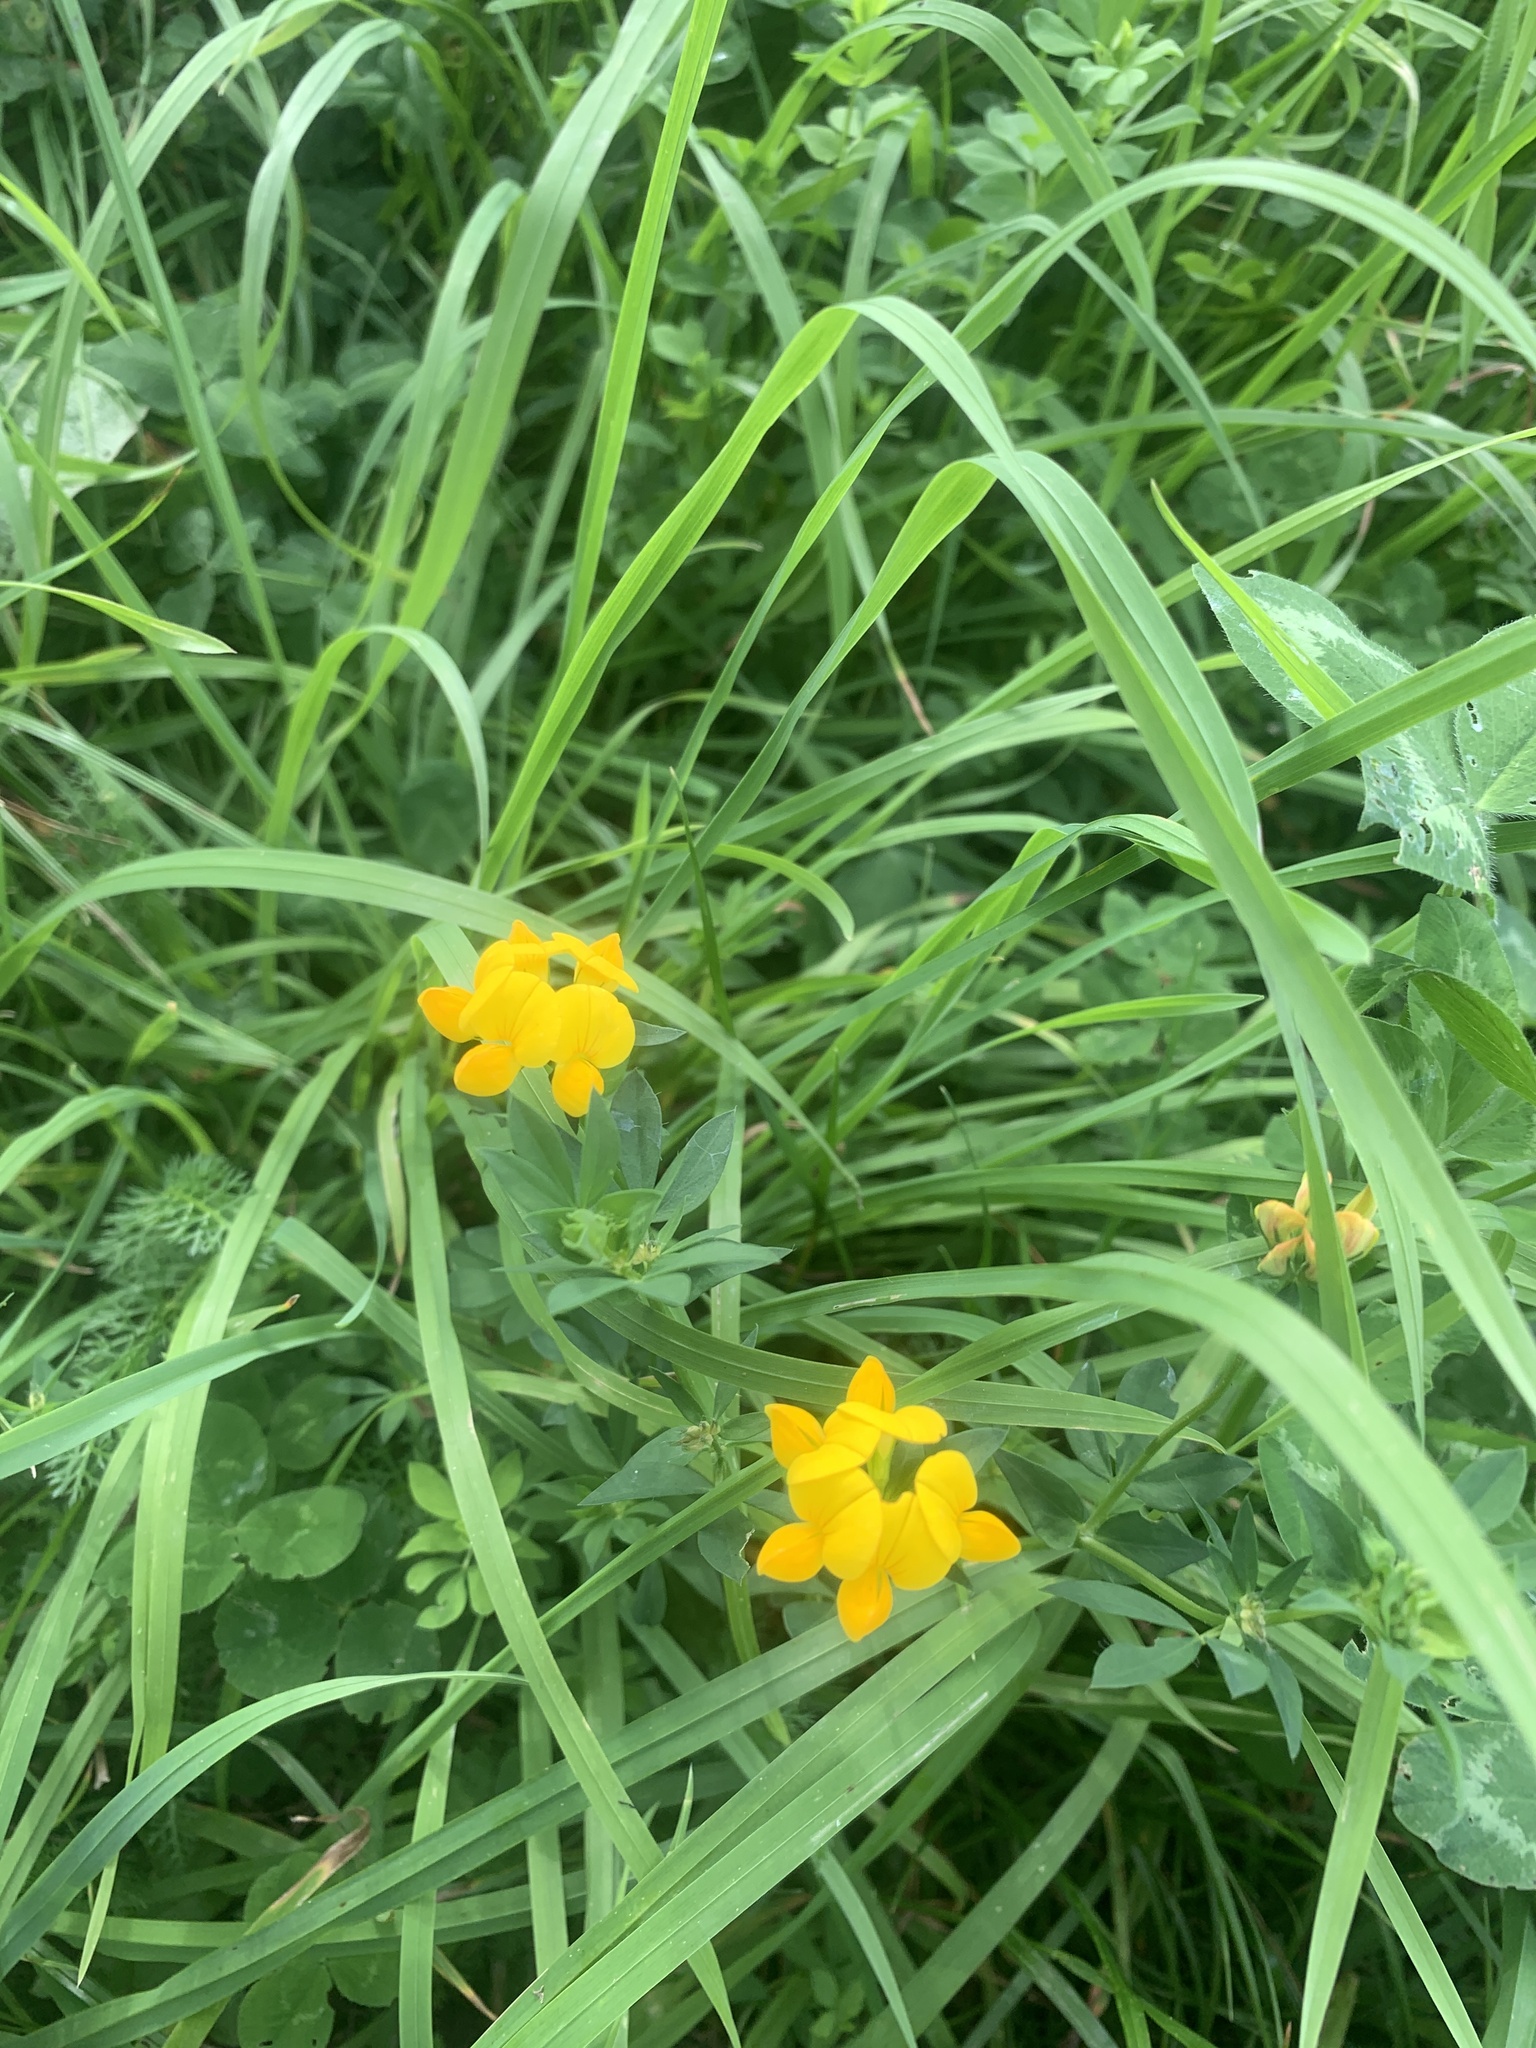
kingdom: Plantae
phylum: Tracheophyta
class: Magnoliopsida
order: Fabales
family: Fabaceae
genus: Lotus
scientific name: Lotus corniculatus
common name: Common bird's-foot-trefoil
